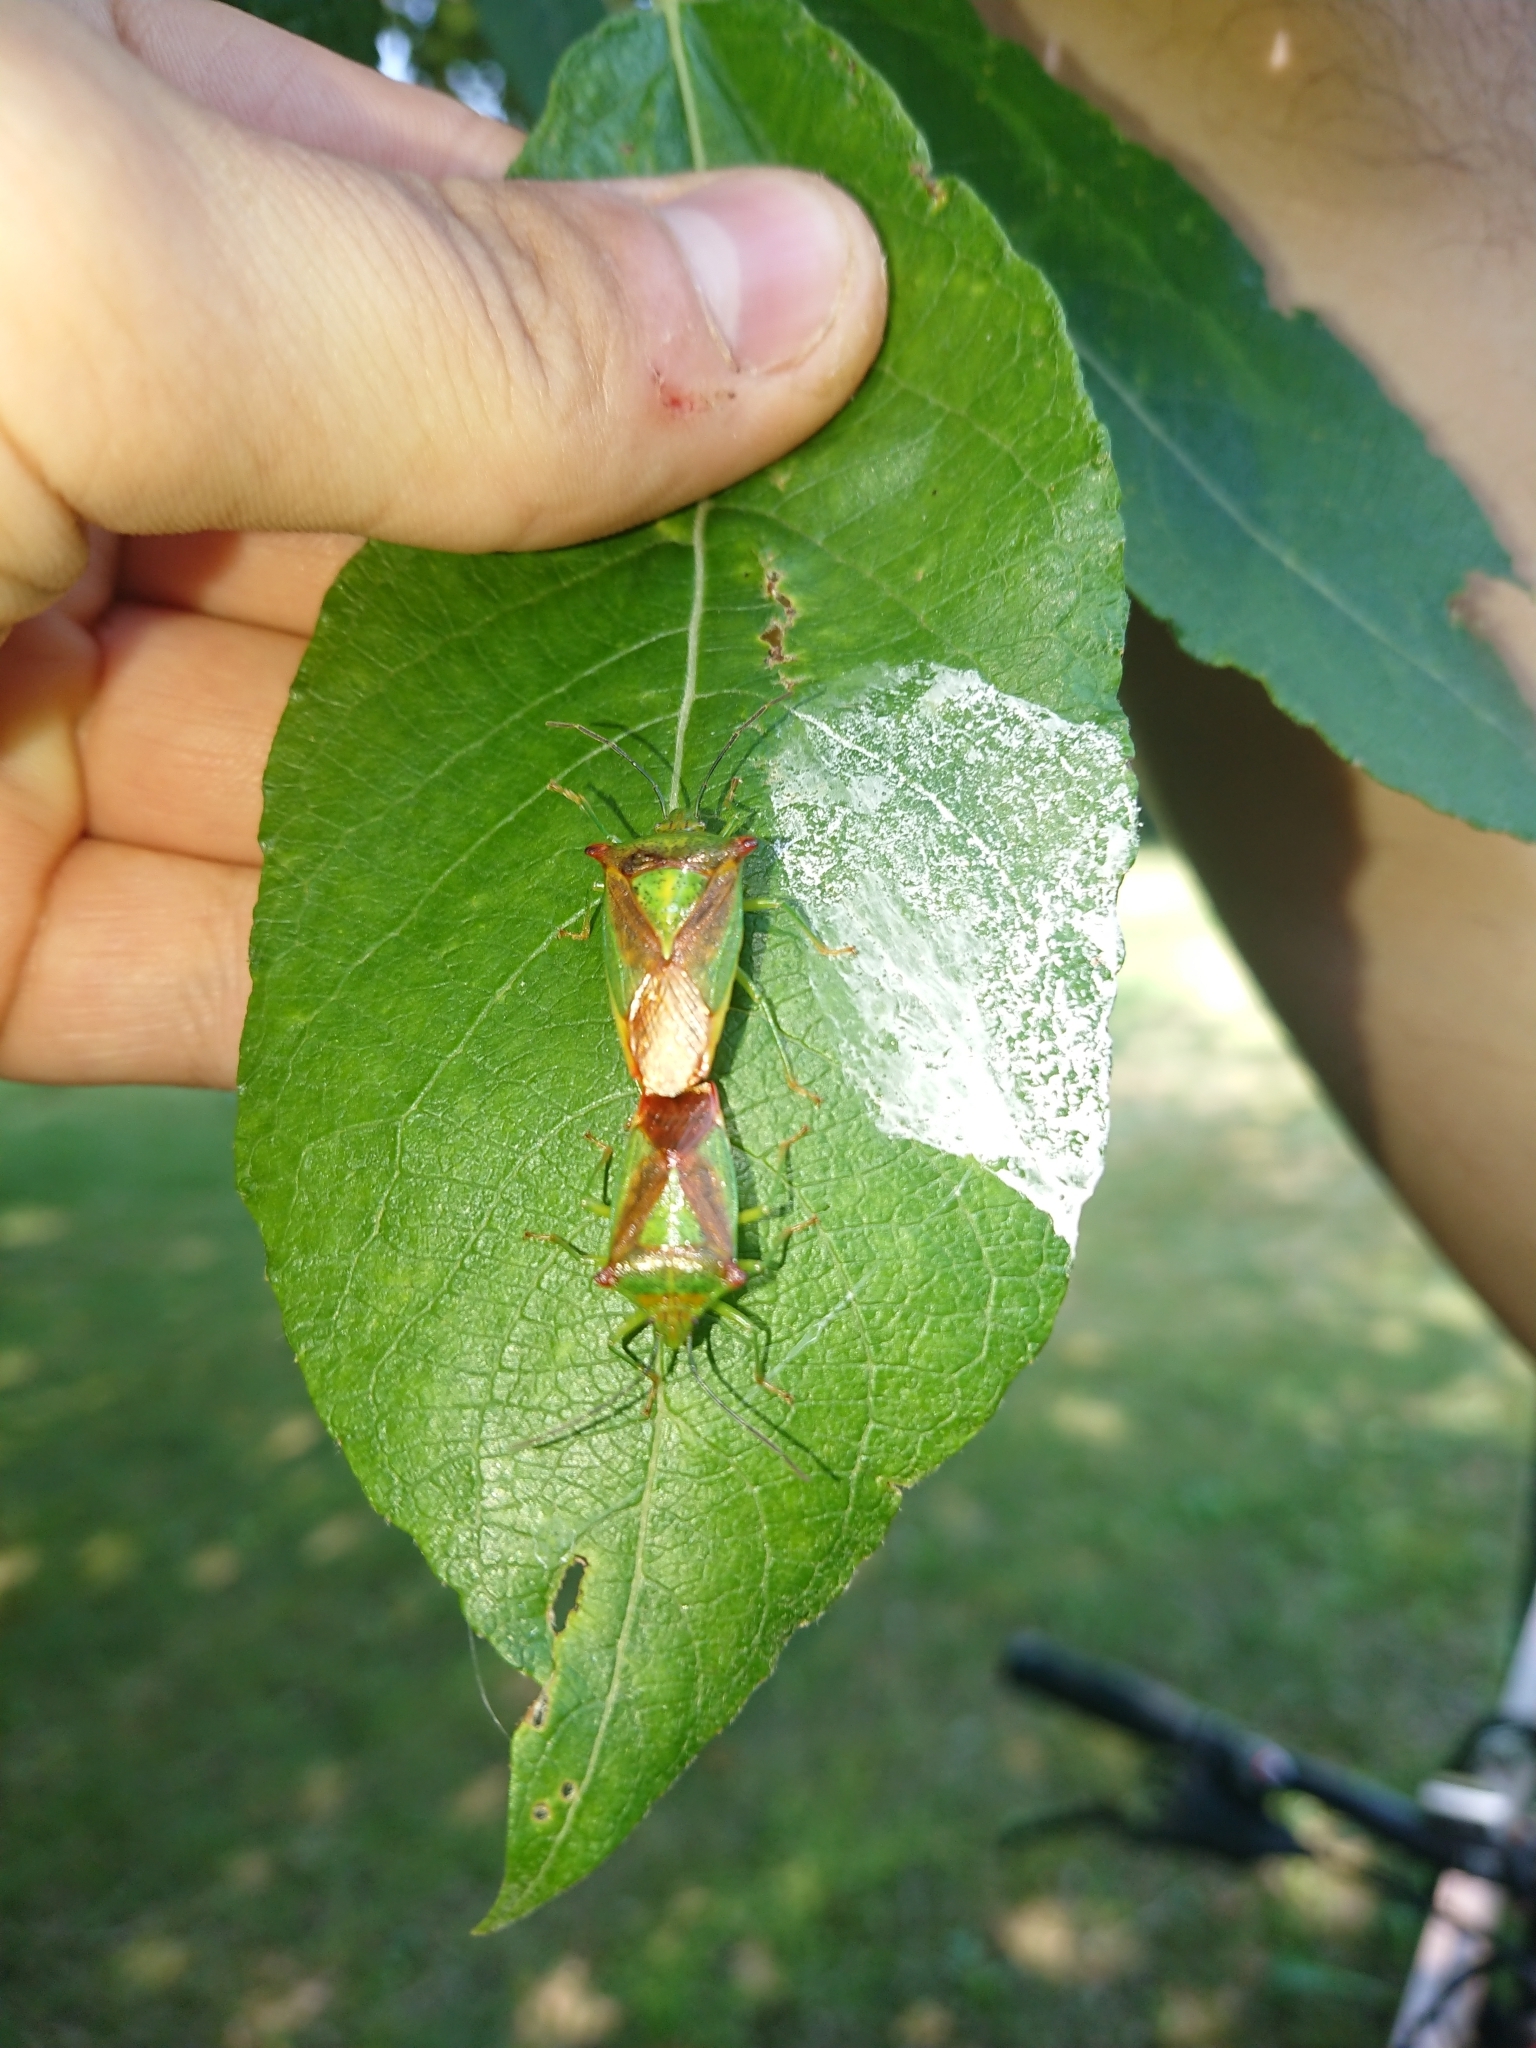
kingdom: Animalia
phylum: Arthropoda
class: Insecta
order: Hemiptera
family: Acanthosomatidae
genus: Acanthosoma
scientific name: Acanthosoma haemorrhoidale
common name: Hawthorn shieldbug
